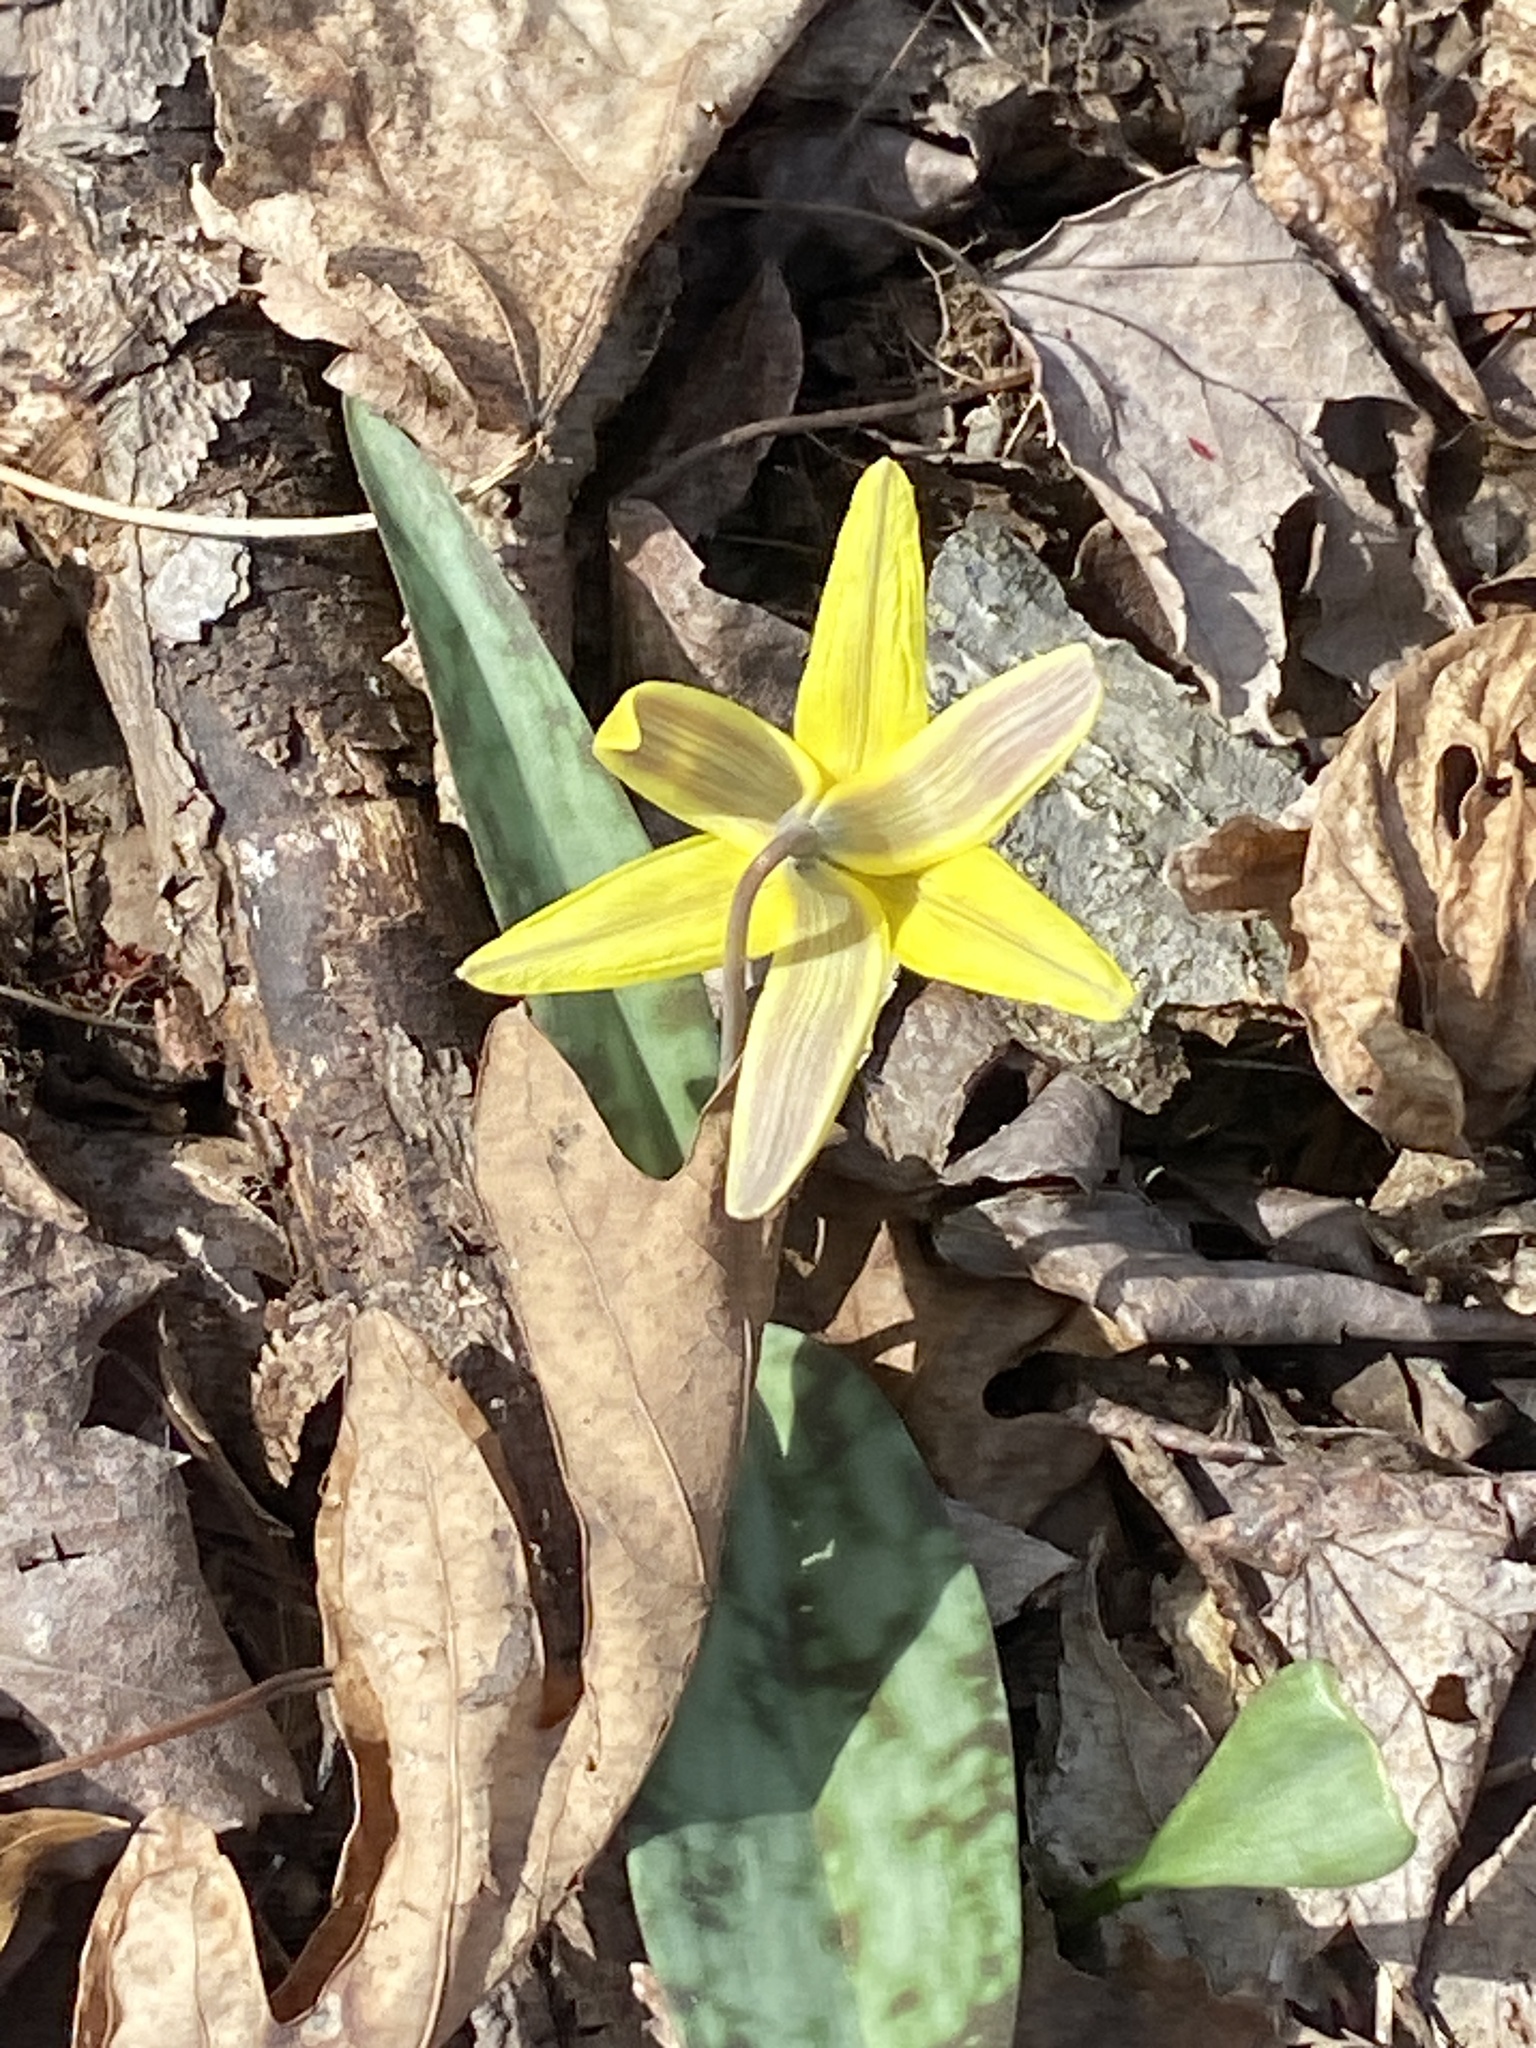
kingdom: Plantae
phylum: Tracheophyta
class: Liliopsida
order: Liliales
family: Liliaceae
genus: Erythronium
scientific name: Erythronium americanum
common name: Yellow adder's-tongue
